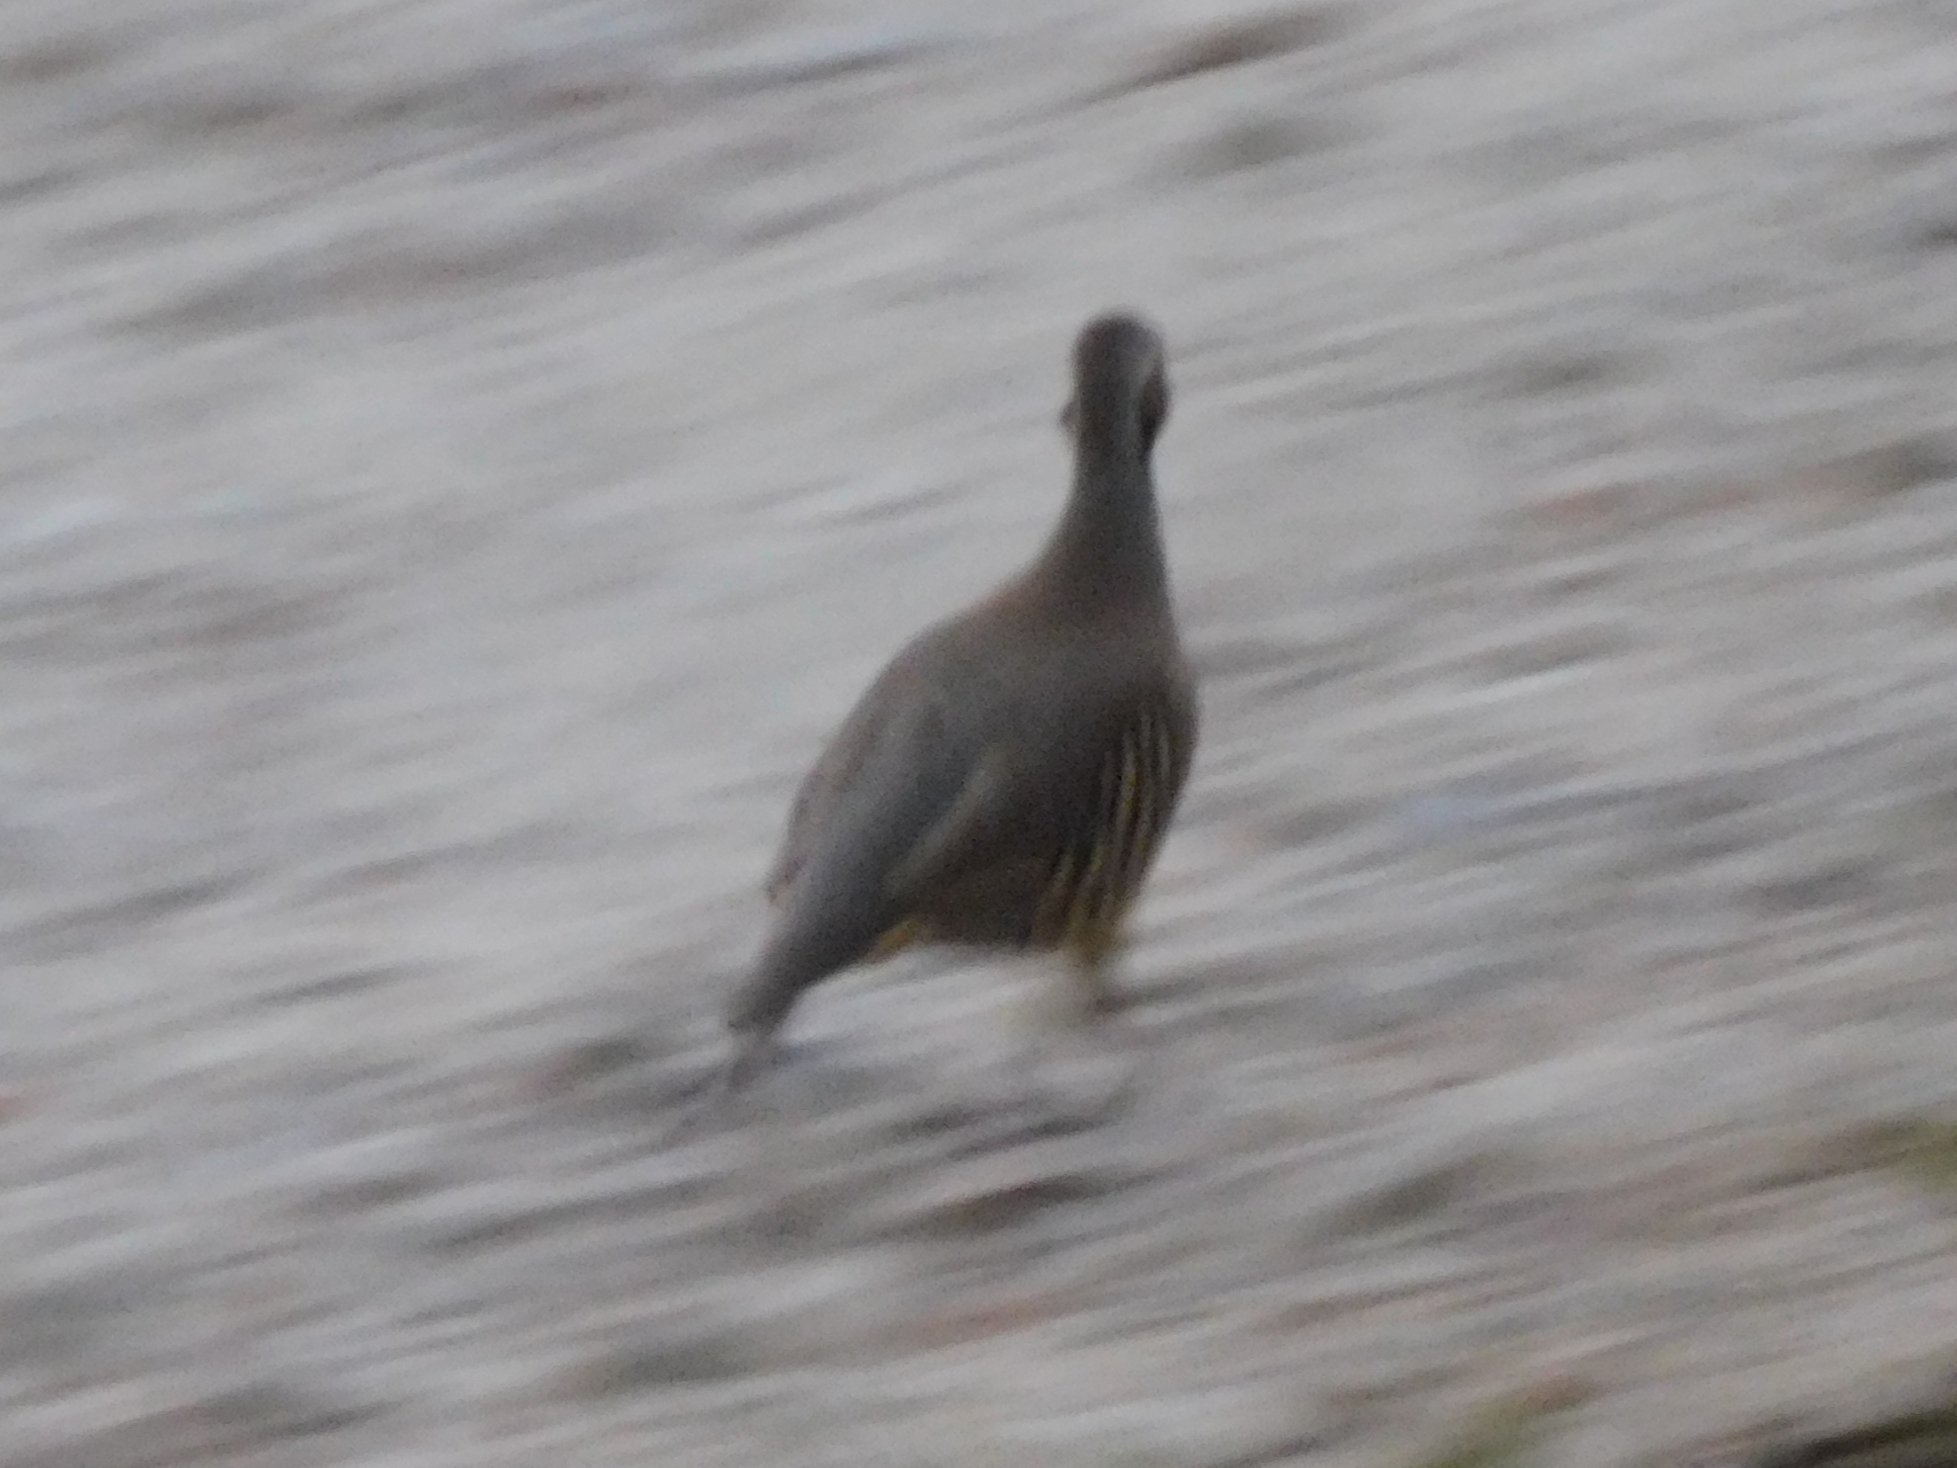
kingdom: Animalia
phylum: Chordata
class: Aves
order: Galliformes
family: Phasianidae
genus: Alectoris
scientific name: Alectoris chukar
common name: Chukar
